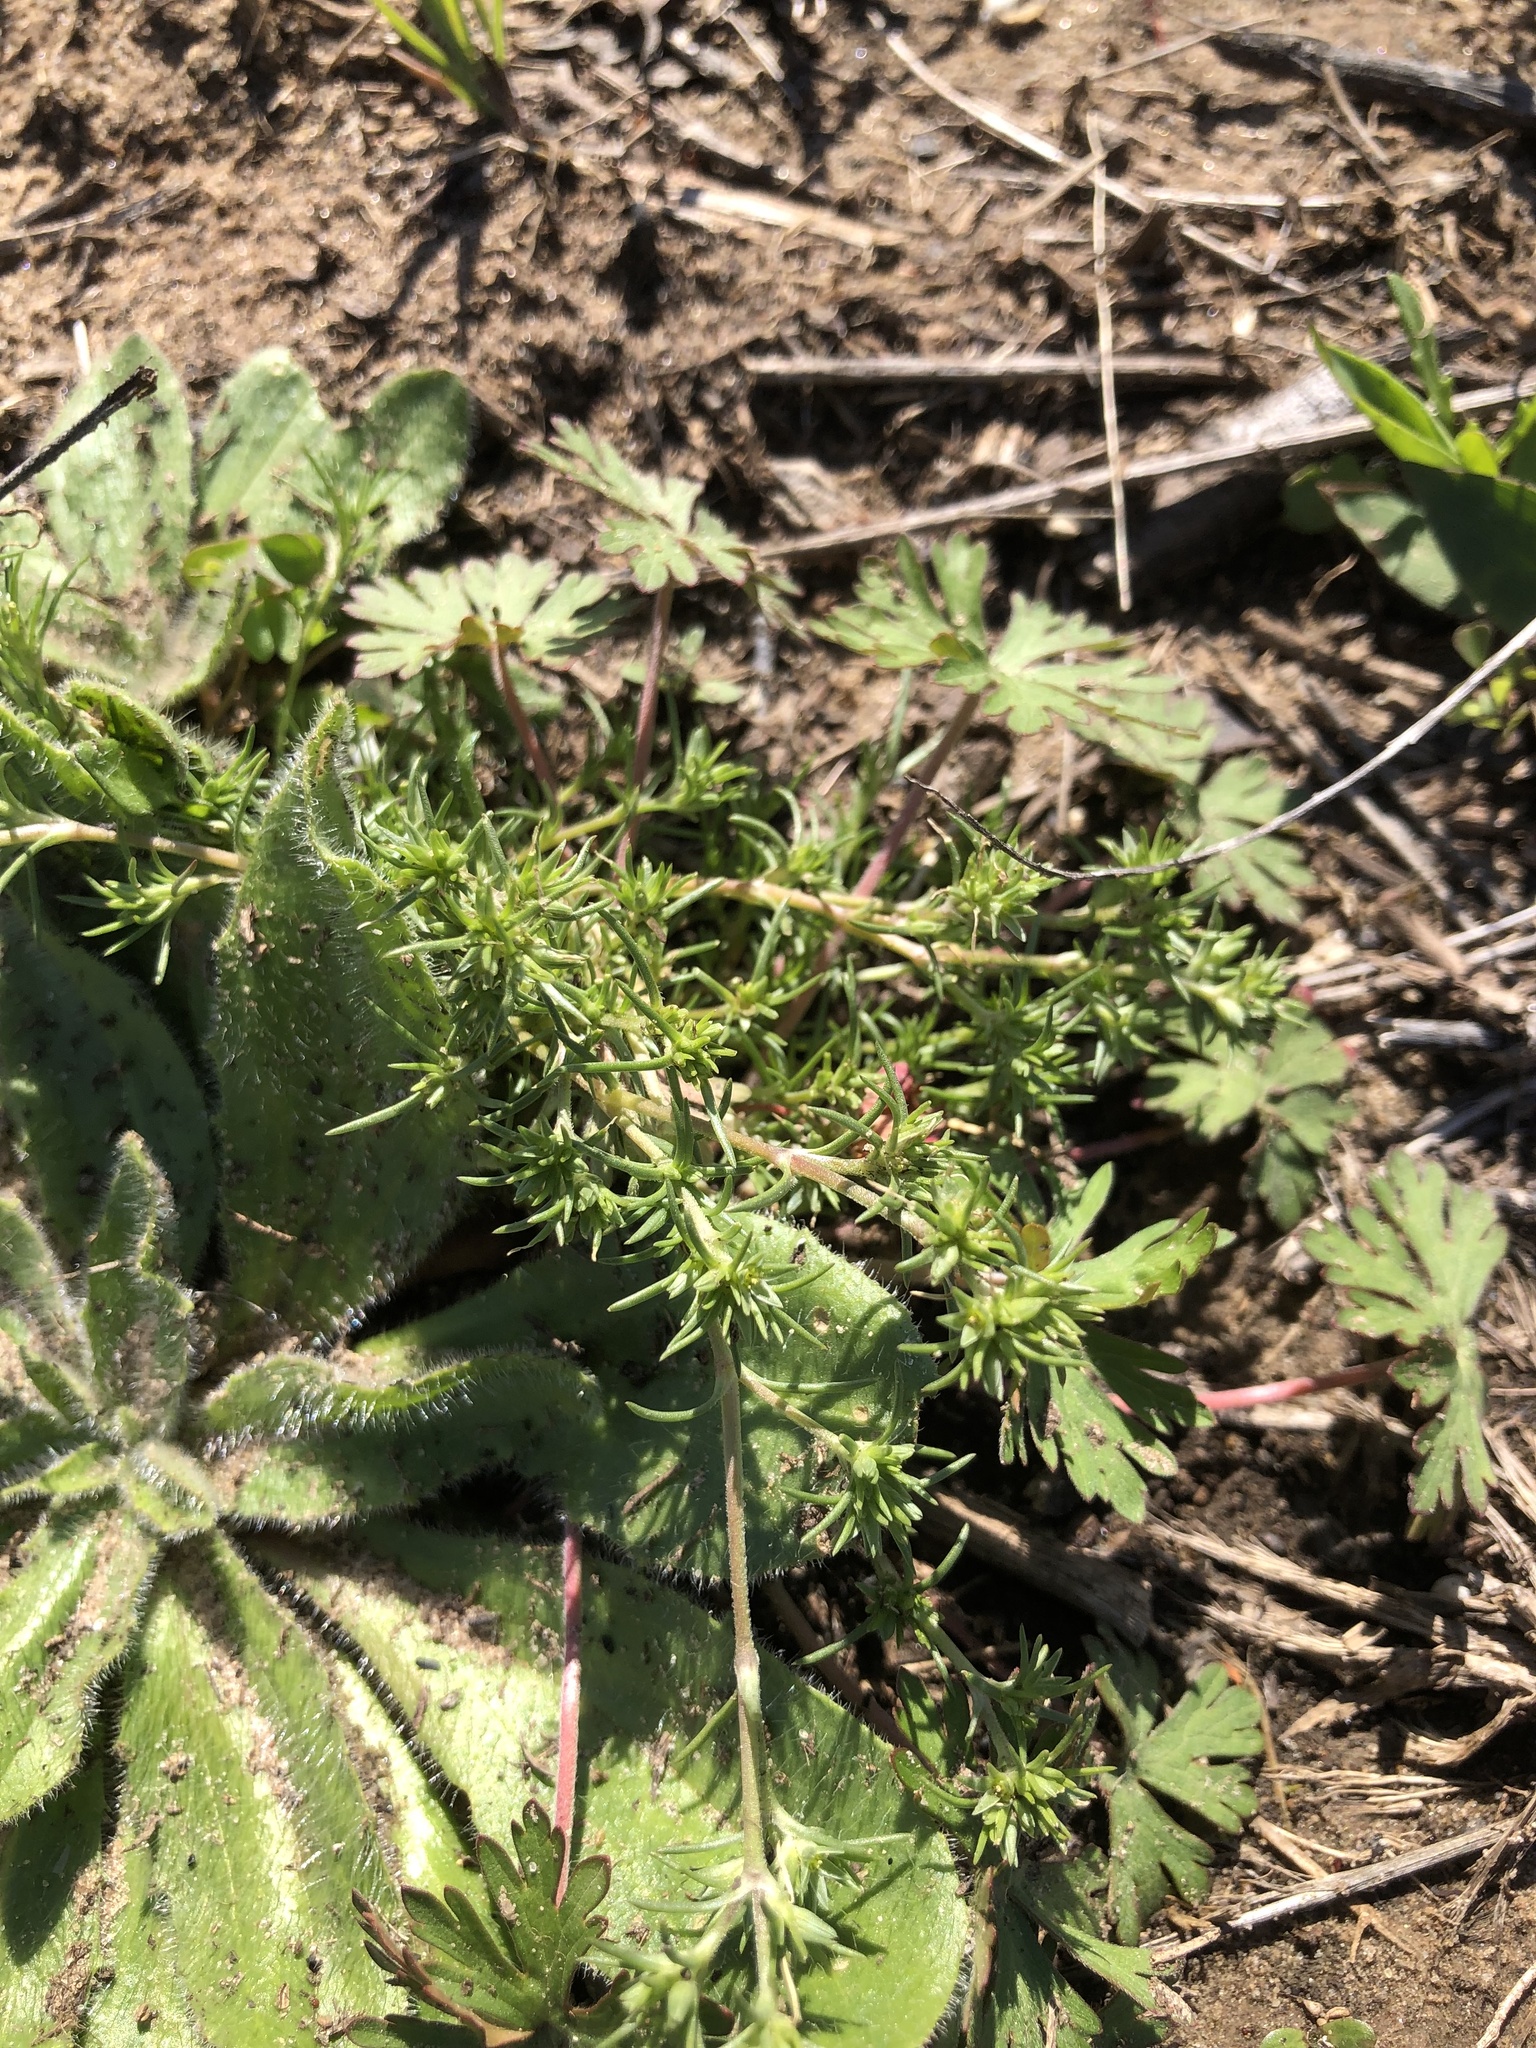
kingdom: Plantae
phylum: Tracheophyta
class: Magnoliopsida
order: Caryophyllales
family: Caryophyllaceae
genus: Scleranthus
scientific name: Scleranthus annuus
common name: Annual knawel
